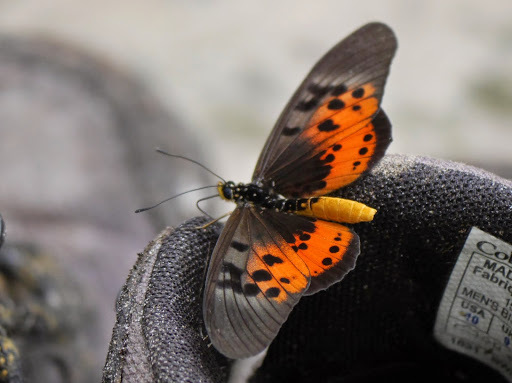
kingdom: Animalia
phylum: Arthropoda
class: Insecta
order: Lepidoptera
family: Nymphalidae
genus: Stephenia
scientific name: Stephenia
